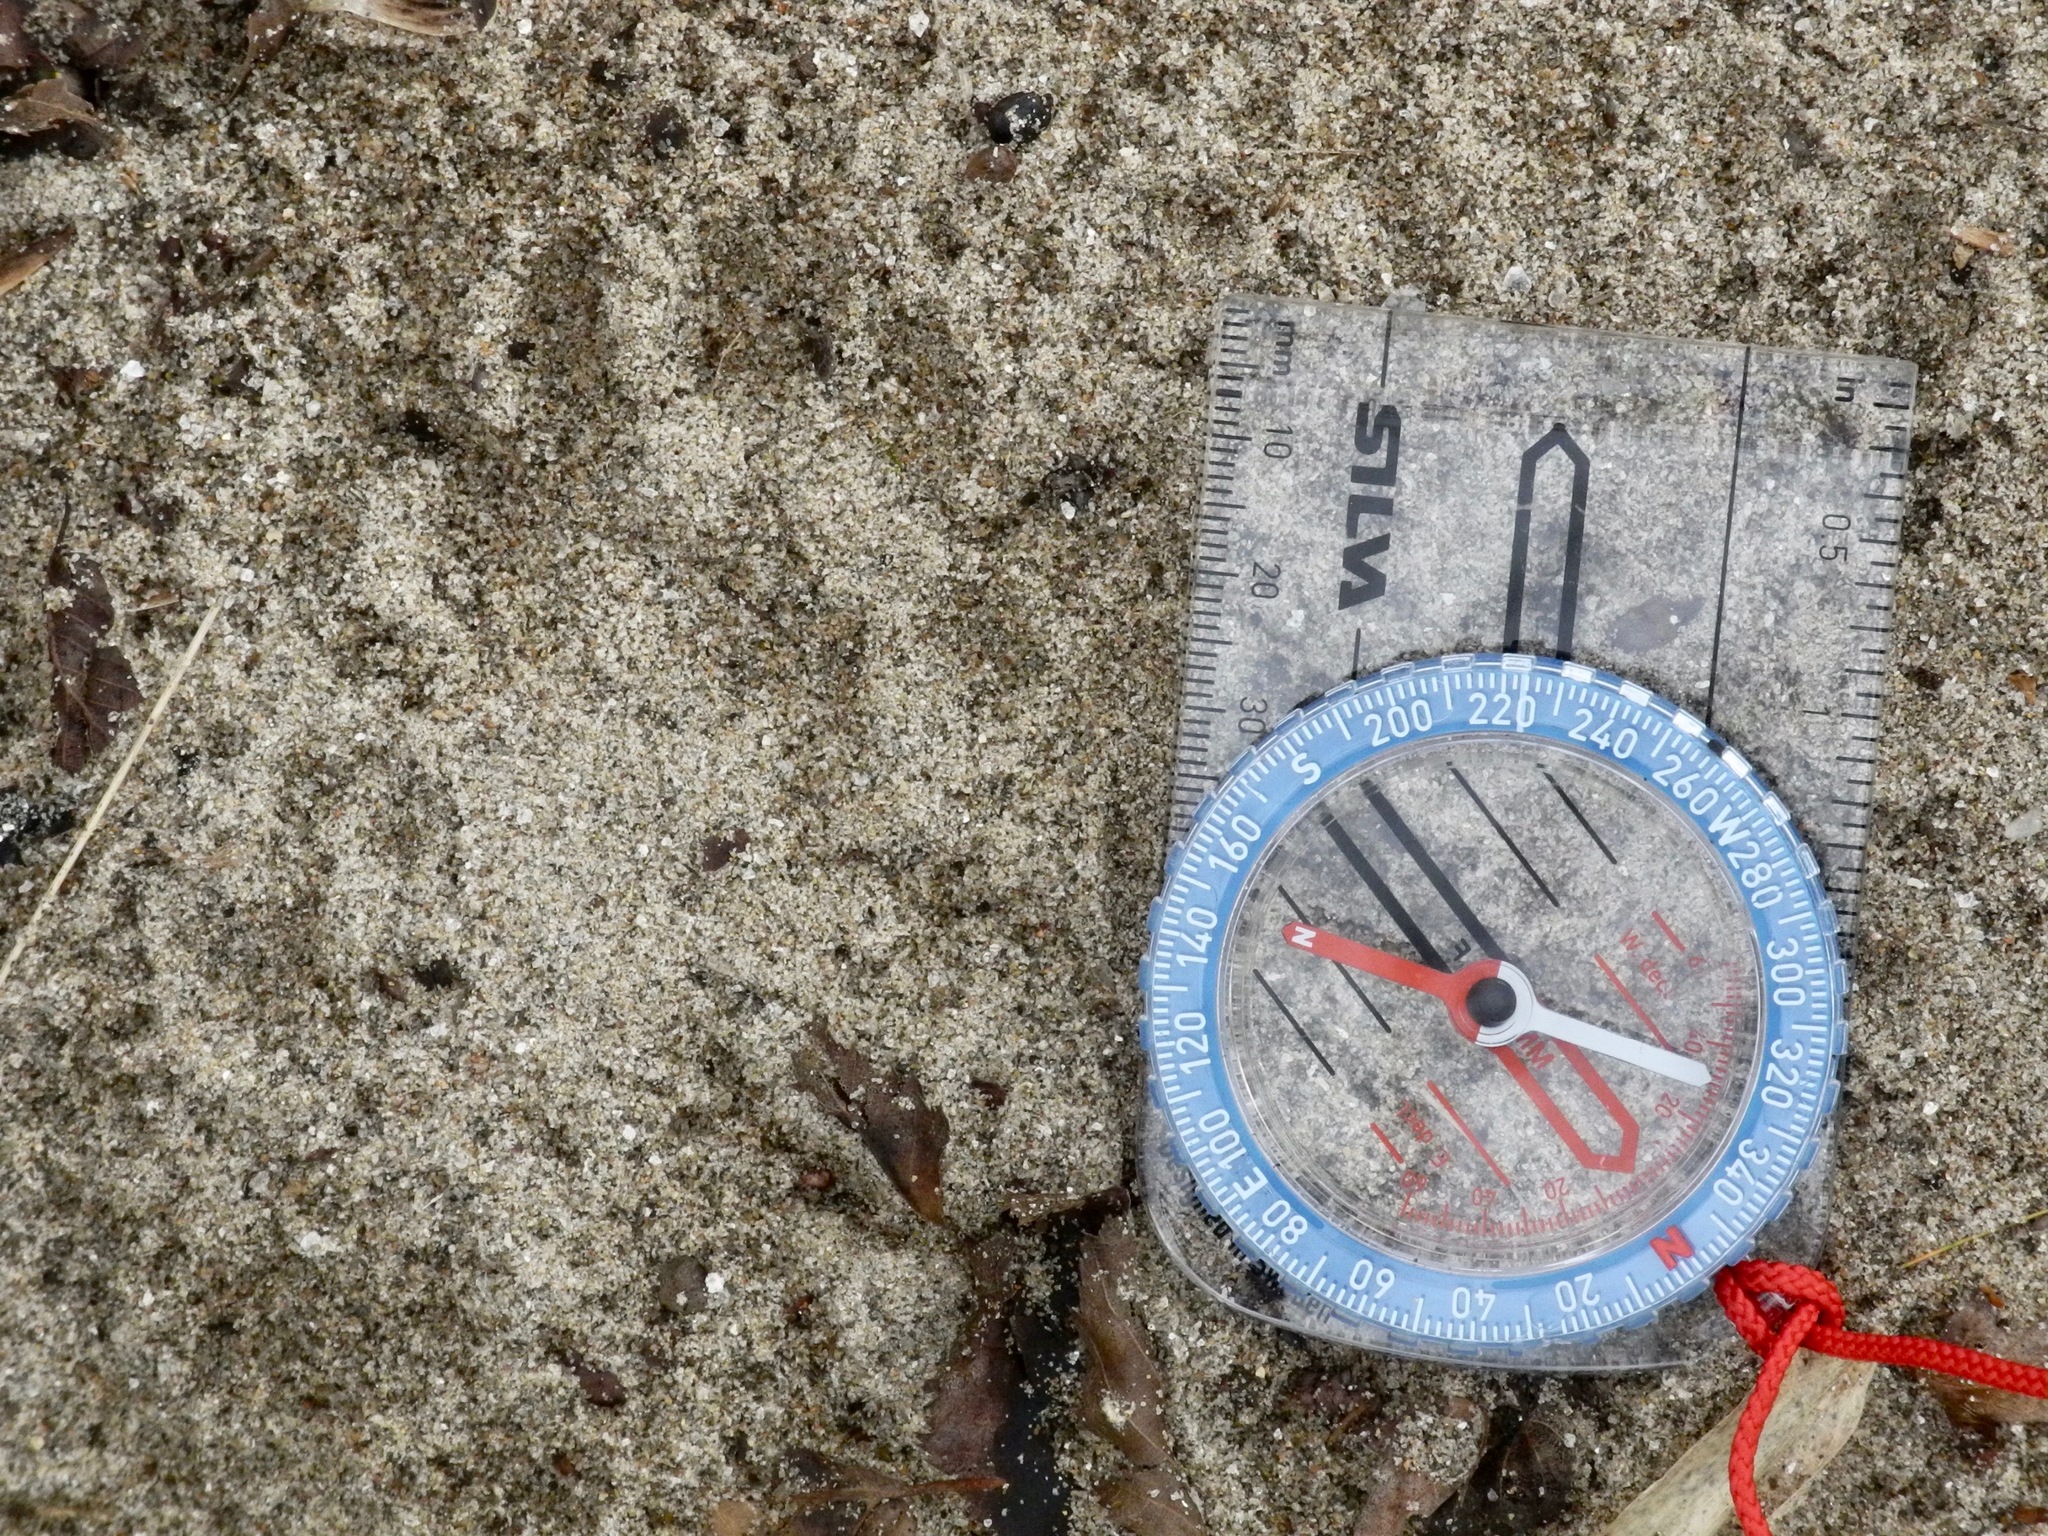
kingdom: Animalia
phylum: Chordata
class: Mammalia
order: Carnivora
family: Mustelidae
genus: Lontra
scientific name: Lontra canadensis
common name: North american river otter
